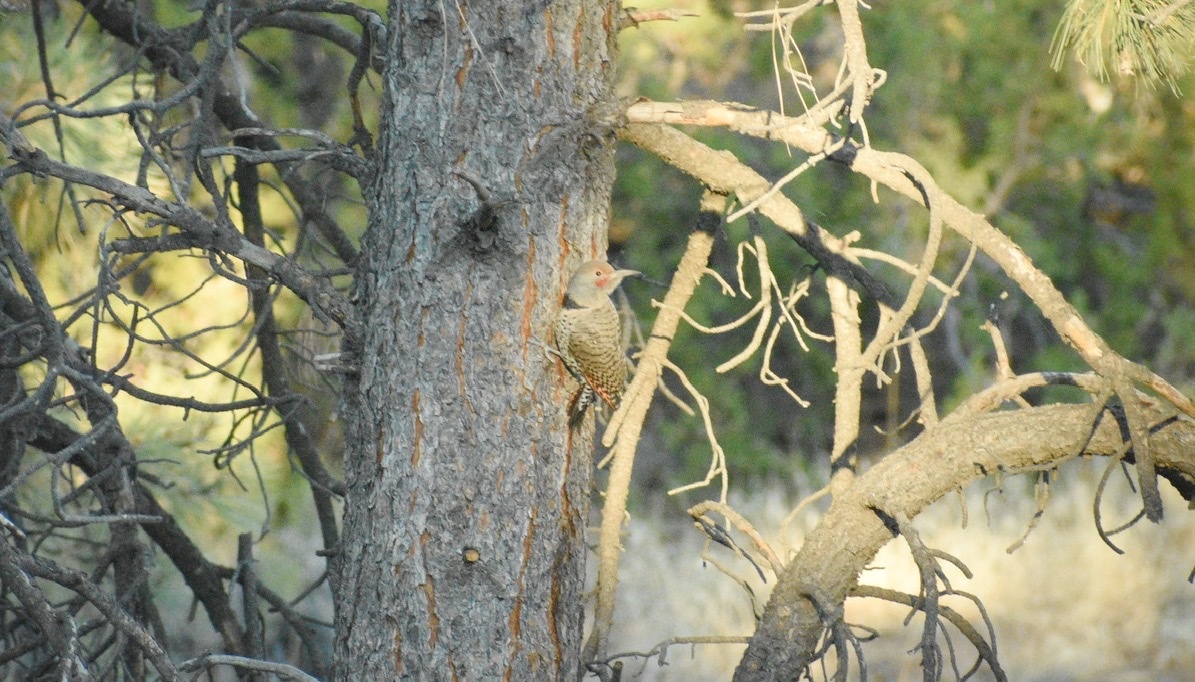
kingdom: Animalia
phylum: Chordata
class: Aves
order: Piciformes
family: Picidae
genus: Colaptes
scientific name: Colaptes auratus
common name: Northern flicker
